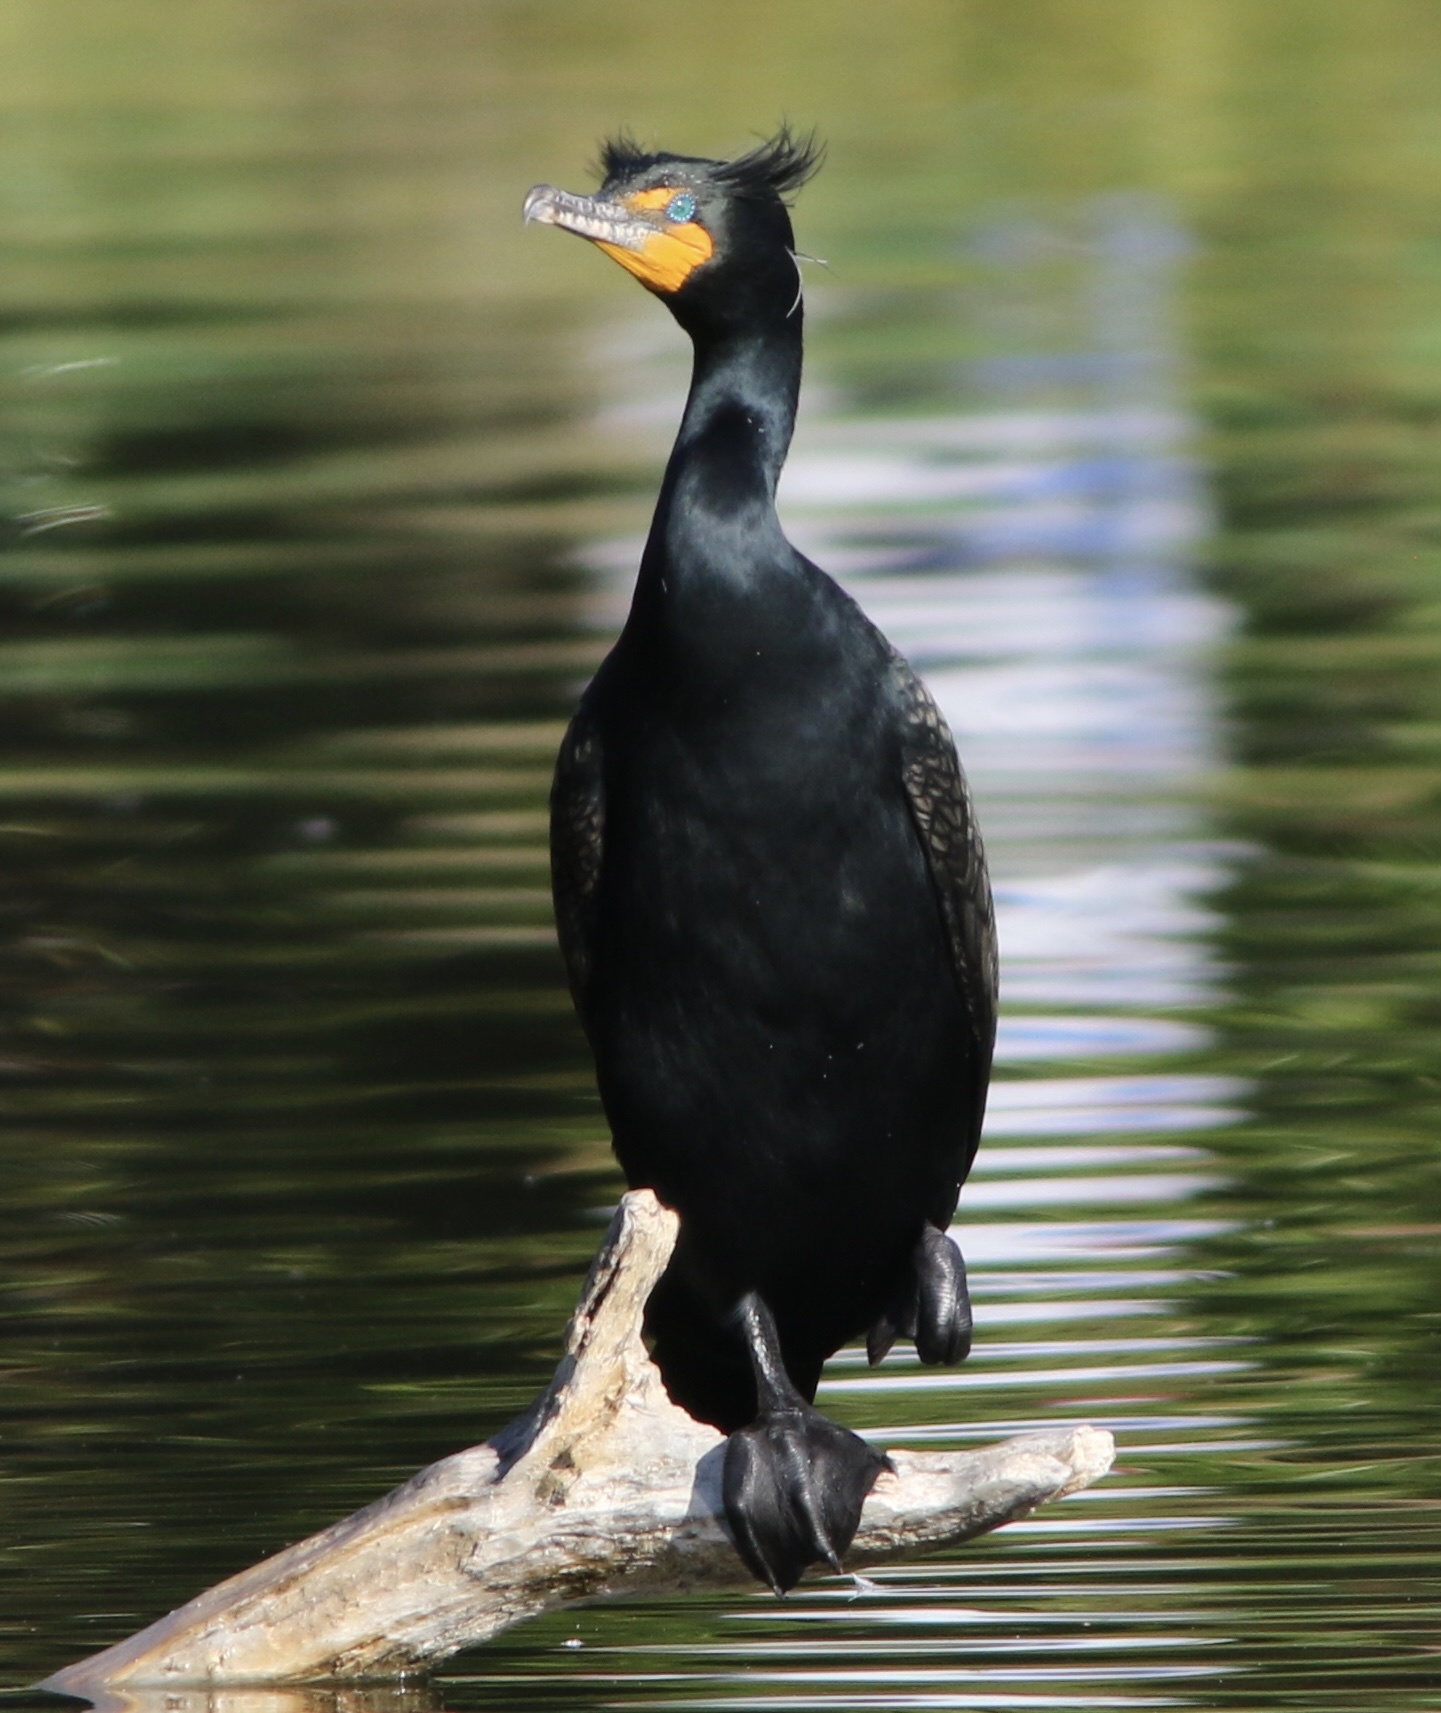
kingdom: Animalia
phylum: Chordata
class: Aves
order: Suliformes
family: Phalacrocoracidae
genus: Phalacrocorax
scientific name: Phalacrocorax auritus
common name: Double-crested cormorant
